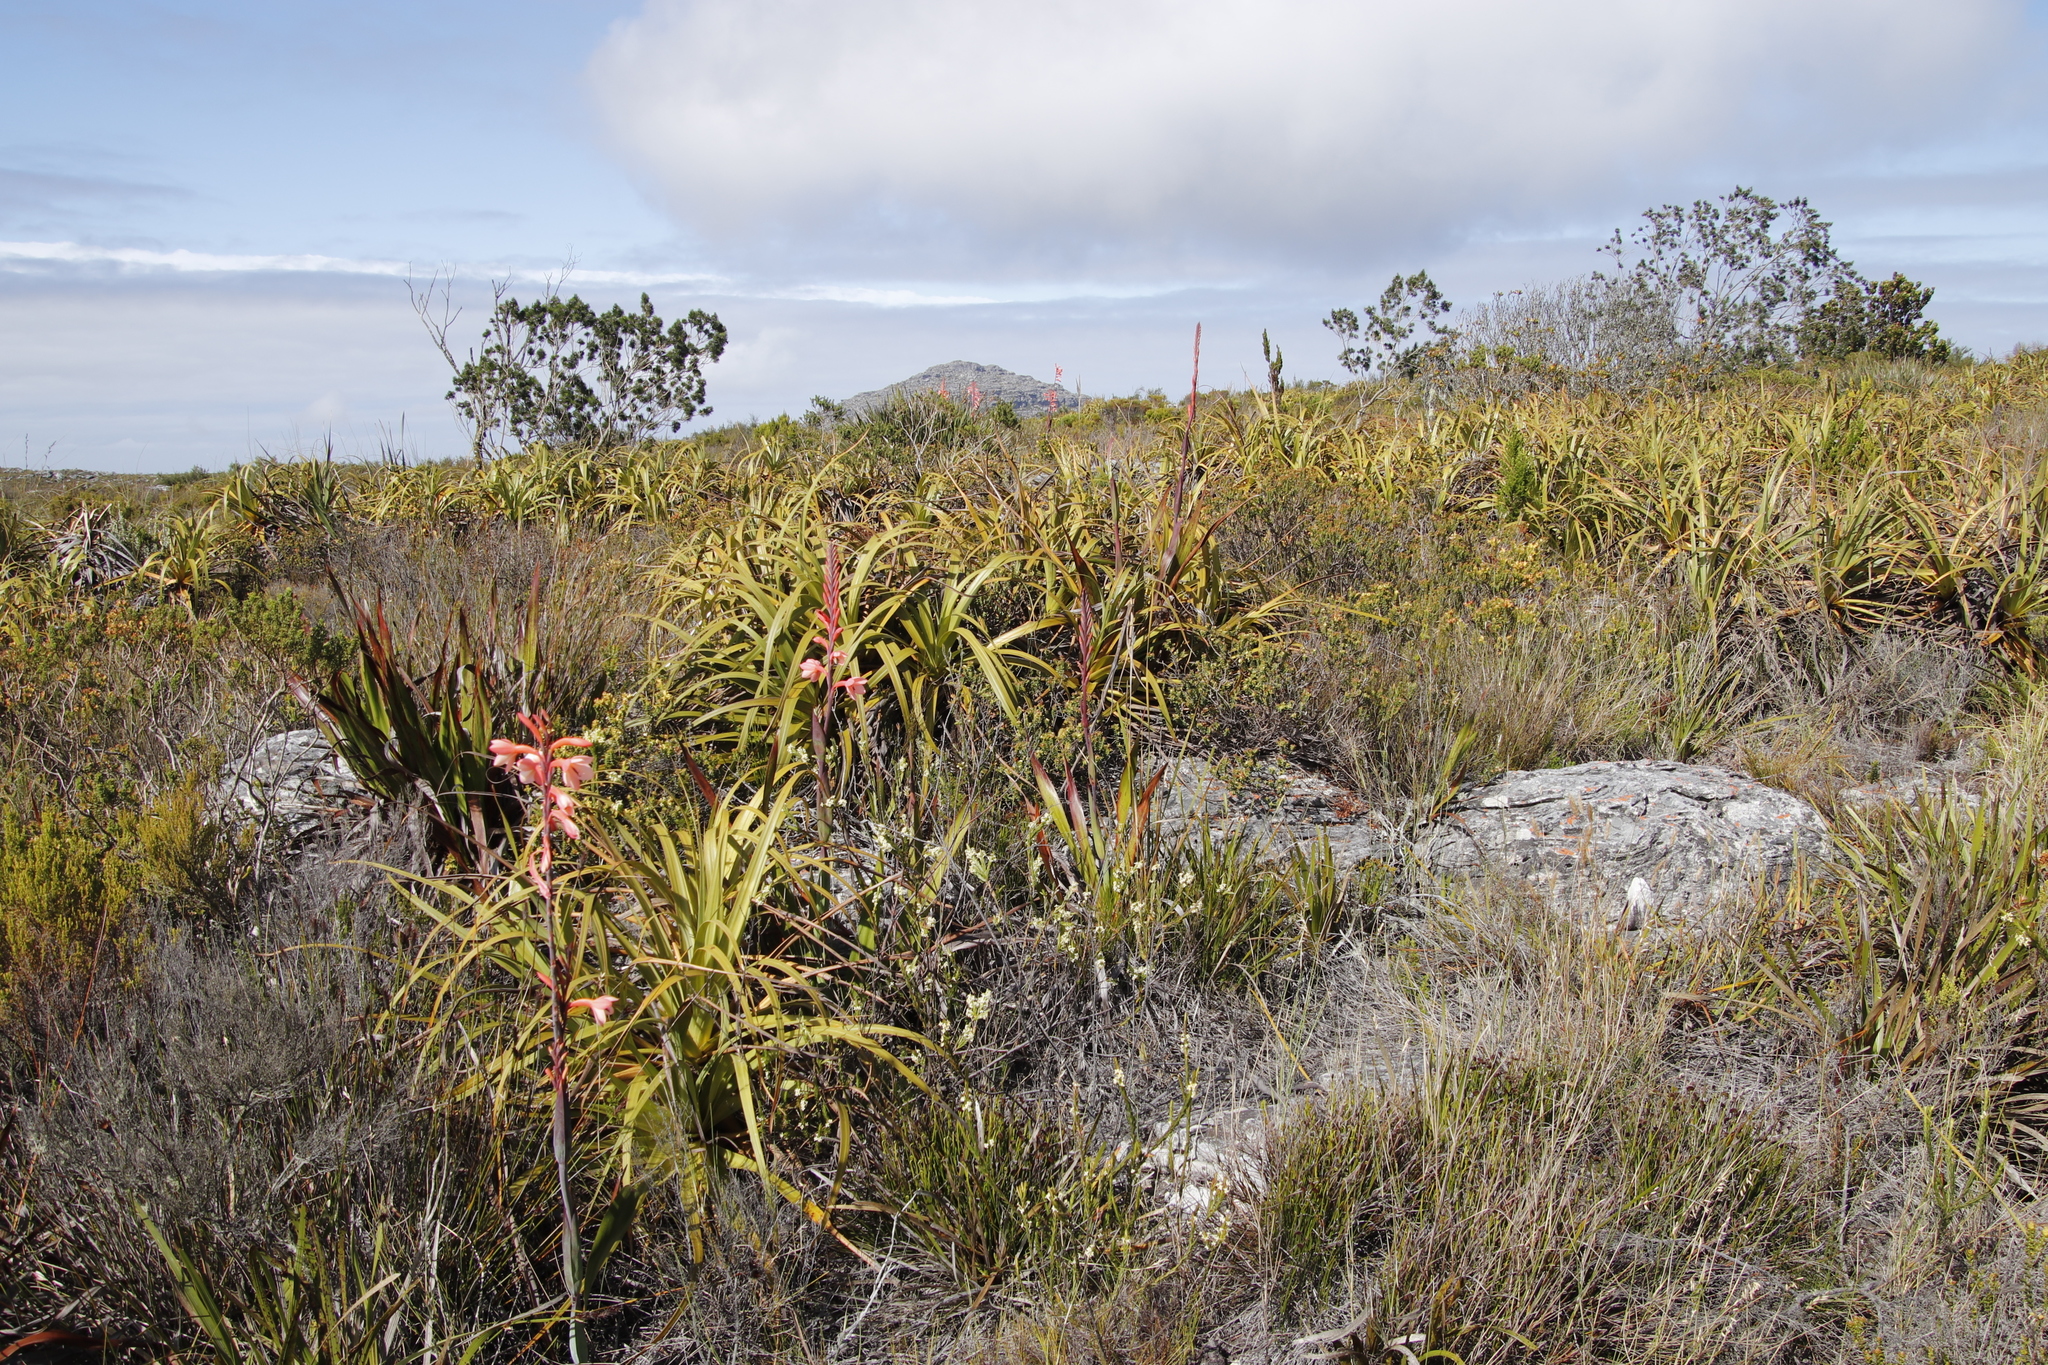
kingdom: Plantae
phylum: Tracheophyta
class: Liliopsida
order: Poales
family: Cyperaceae
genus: Tetraria
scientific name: Tetraria thermalis
